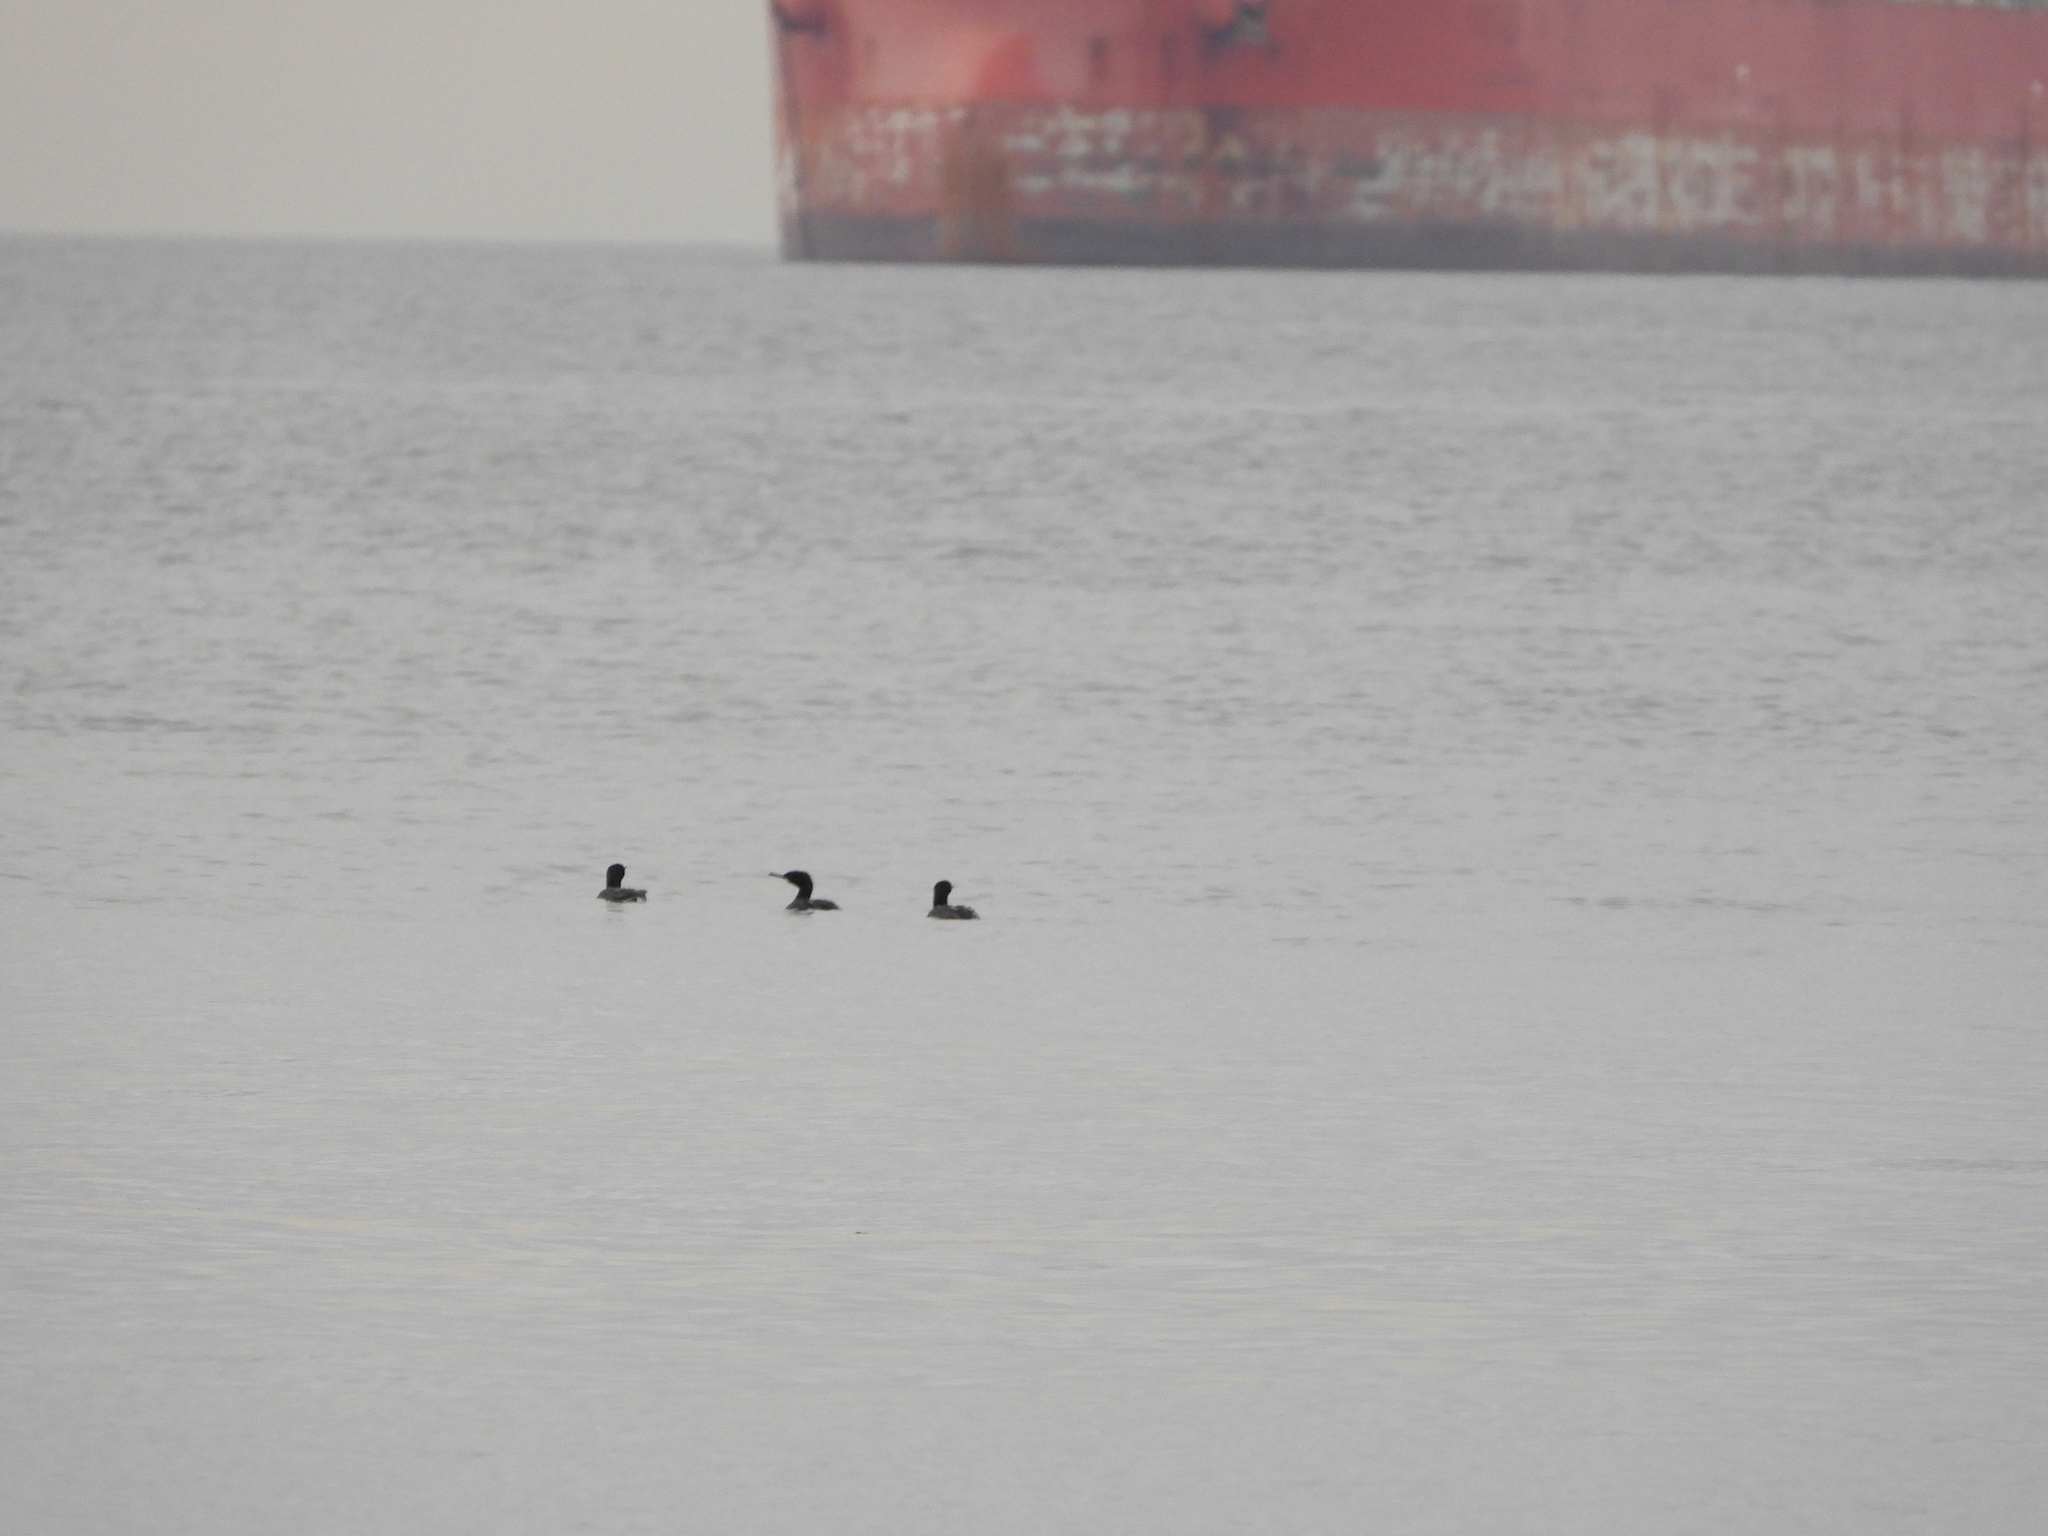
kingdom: Animalia
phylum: Chordata
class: Aves
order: Suliformes
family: Phalacrocoracidae
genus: Phalacrocorax
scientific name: Phalacrocorax pelagicus
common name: Pelagic cormorant
